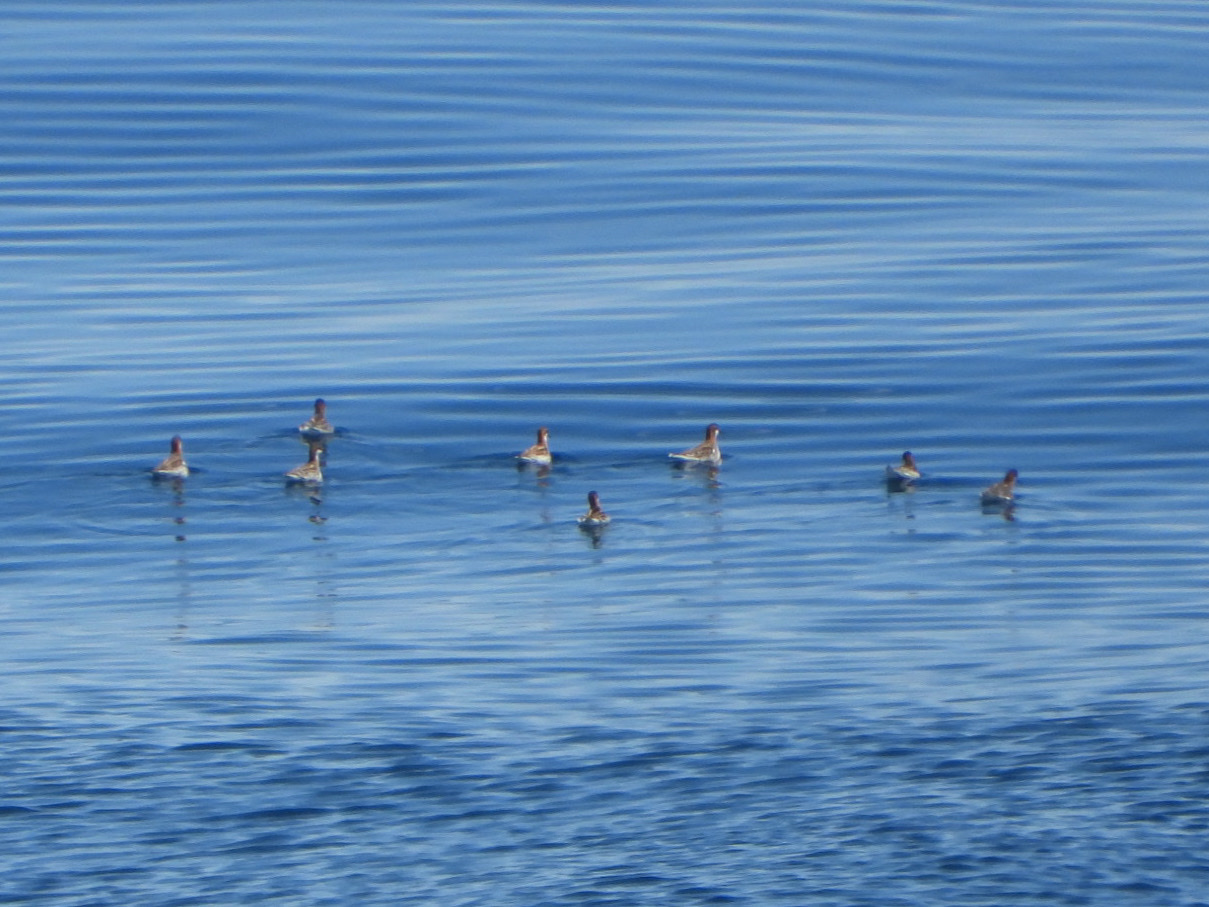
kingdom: Animalia
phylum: Chordata
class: Aves
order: Charadriiformes
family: Scolopacidae
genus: Phalaropus
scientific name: Phalaropus lobatus
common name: Red-necked phalarope
